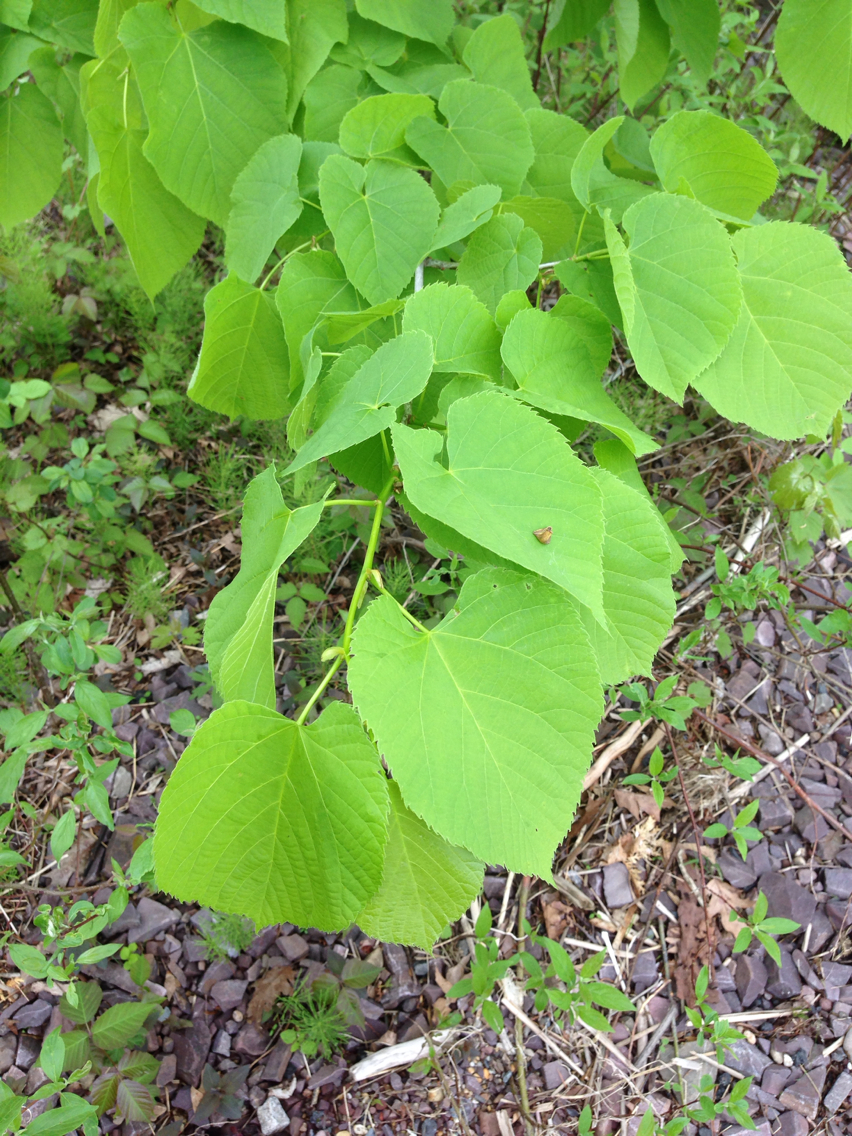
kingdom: Plantae
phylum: Tracheophyta
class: Magnoliopsida
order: Malvales
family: Malvaceae
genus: Tilia
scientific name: Tilia americana
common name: Basswood
